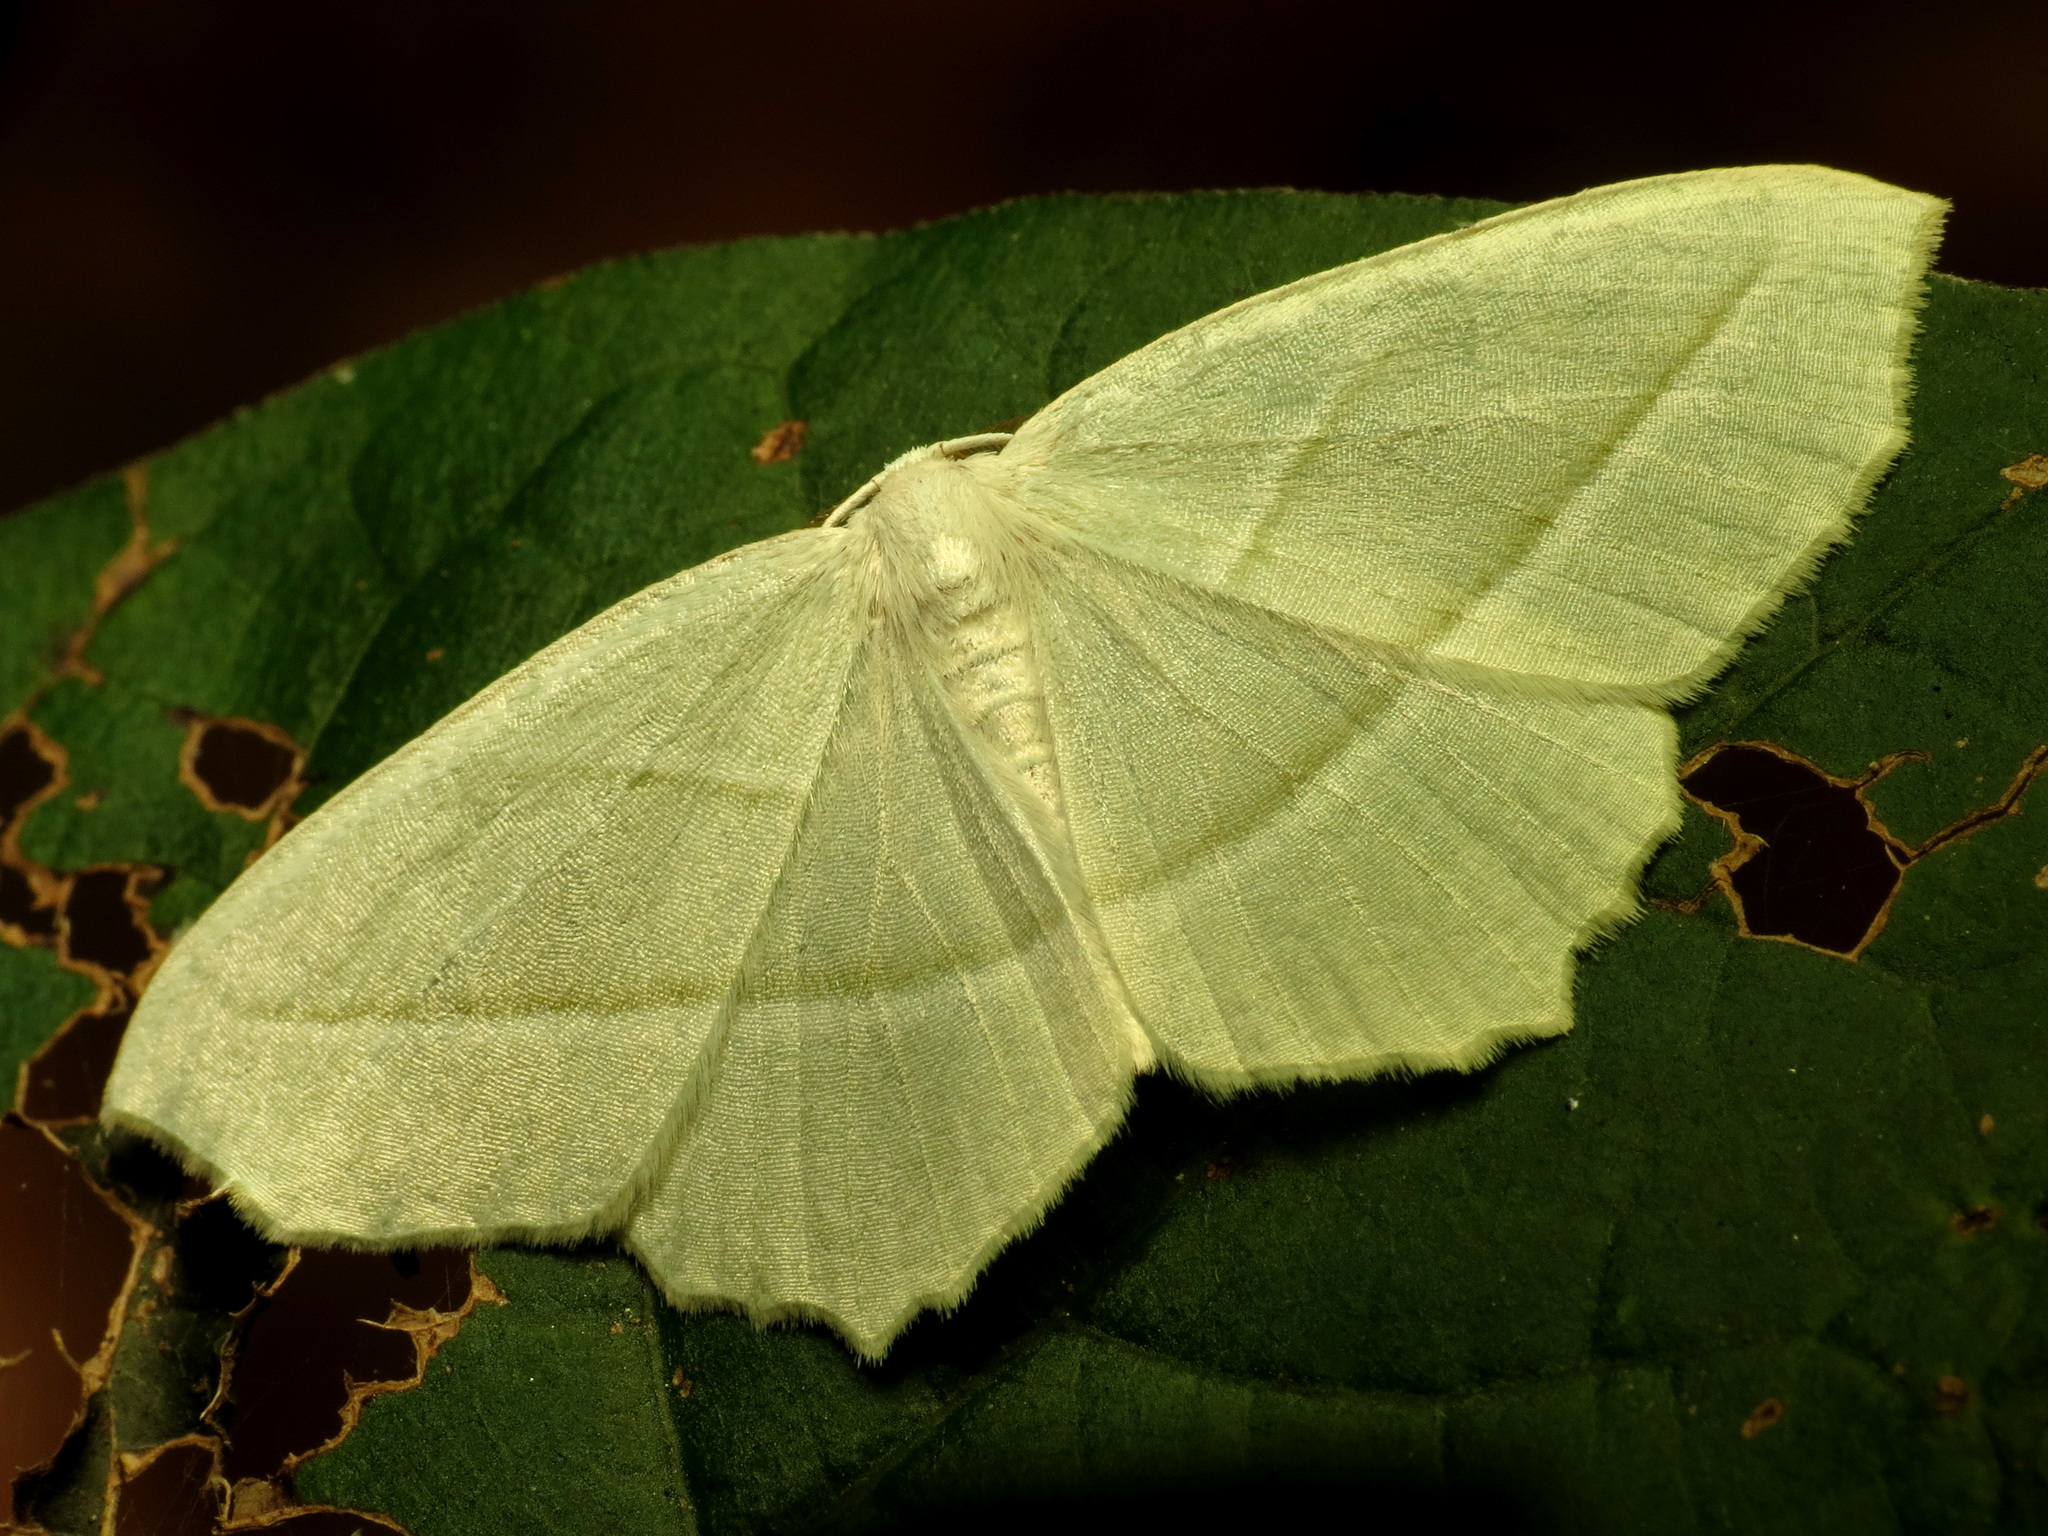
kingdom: Animalia
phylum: Arthropoda
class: Insecta
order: Lepidoptera
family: Geometridae
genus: Campaea
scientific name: Campaea perlata
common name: Fringed looper
